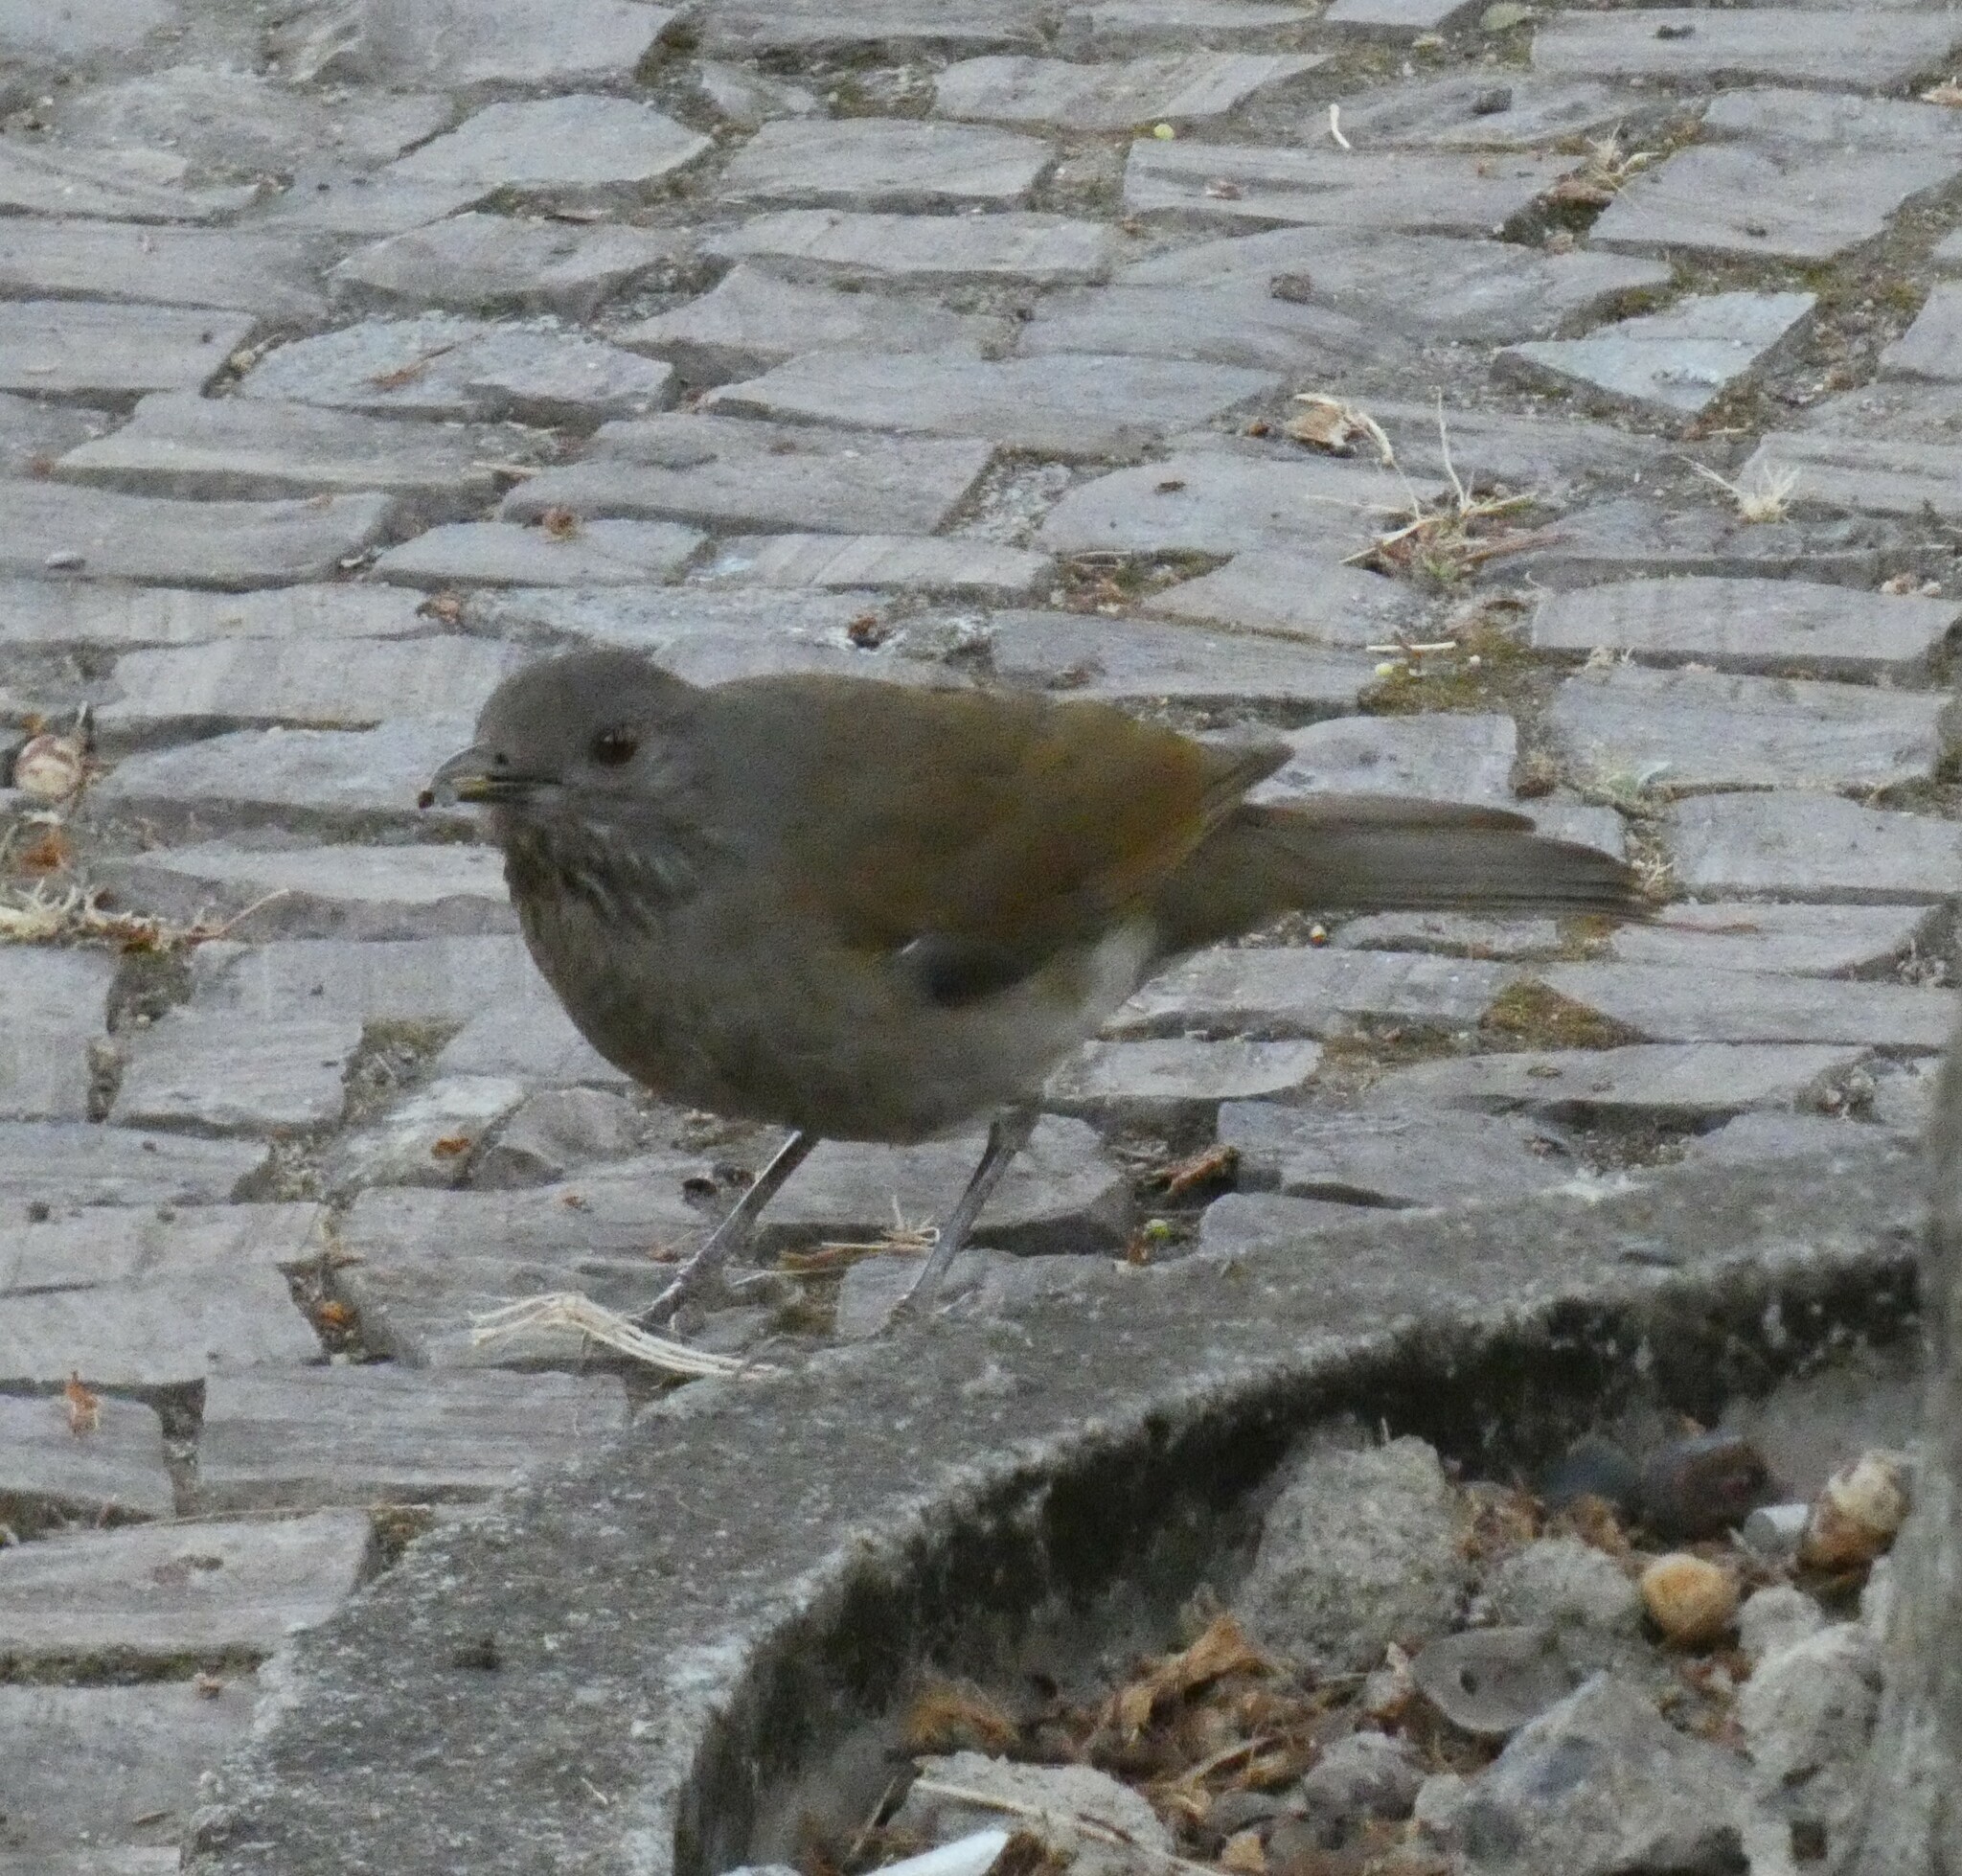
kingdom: Animalia
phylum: Chordata
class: Aves
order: Passeriformes
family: Turdidae
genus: Turdus
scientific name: Turdus leucomelas
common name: Pale-breasted thrush
